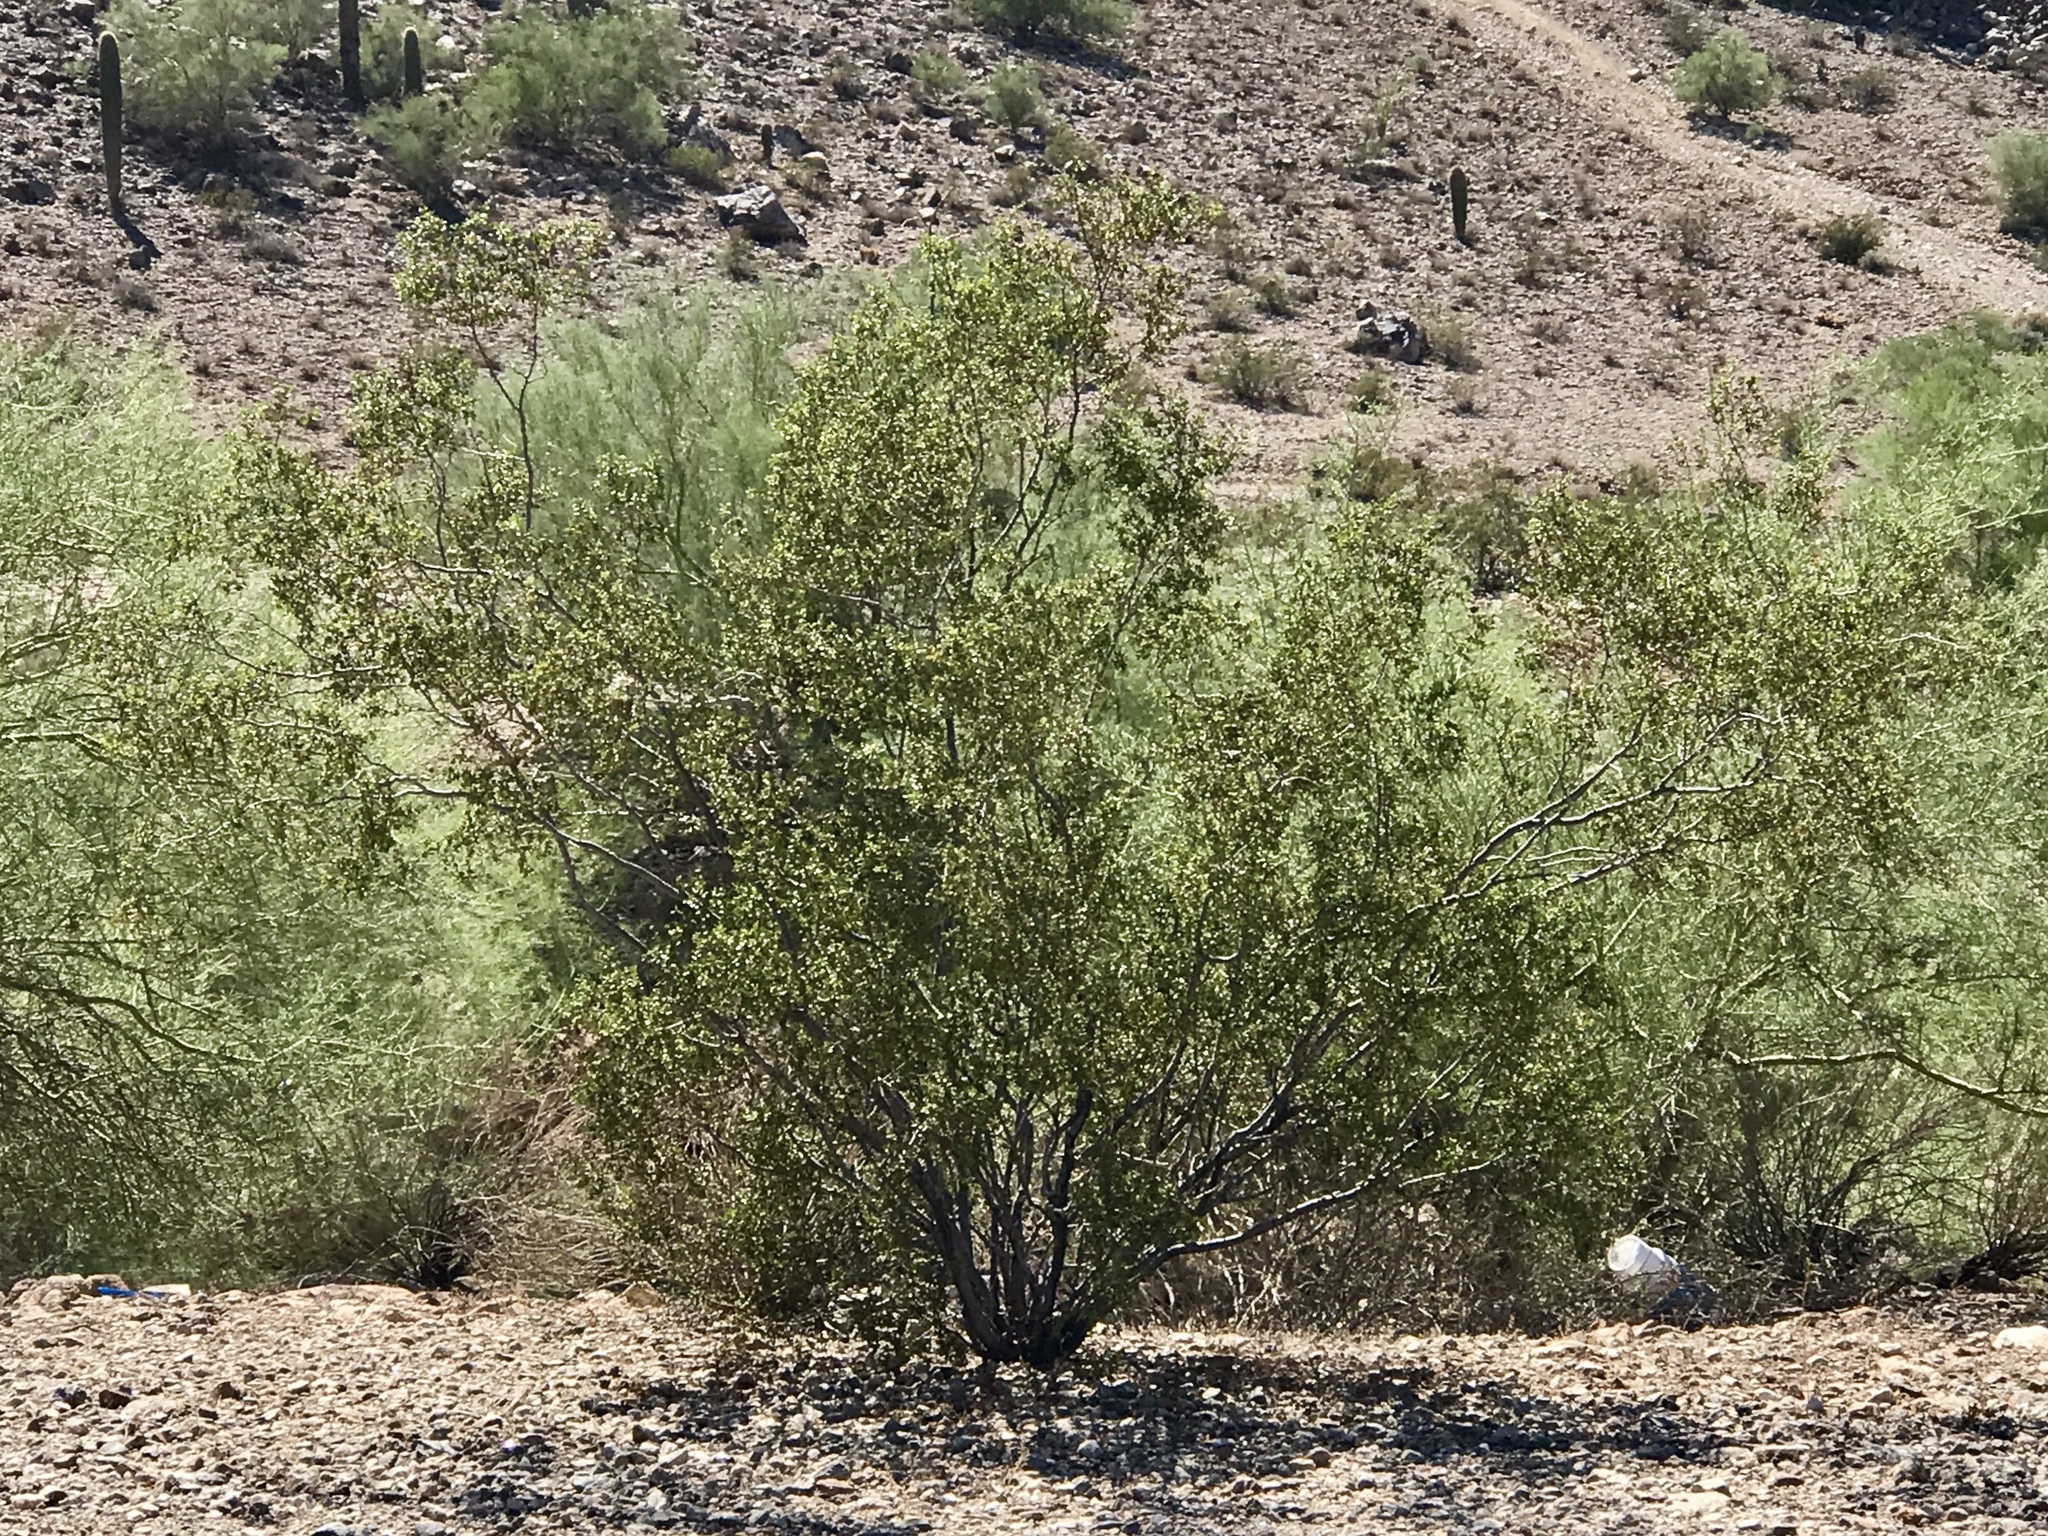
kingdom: Plantae
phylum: Tracheophyta
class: Magnoliopsida
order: Zygophyllales
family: Zygophyllaceae
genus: Larrea
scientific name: Larrea tridentata
